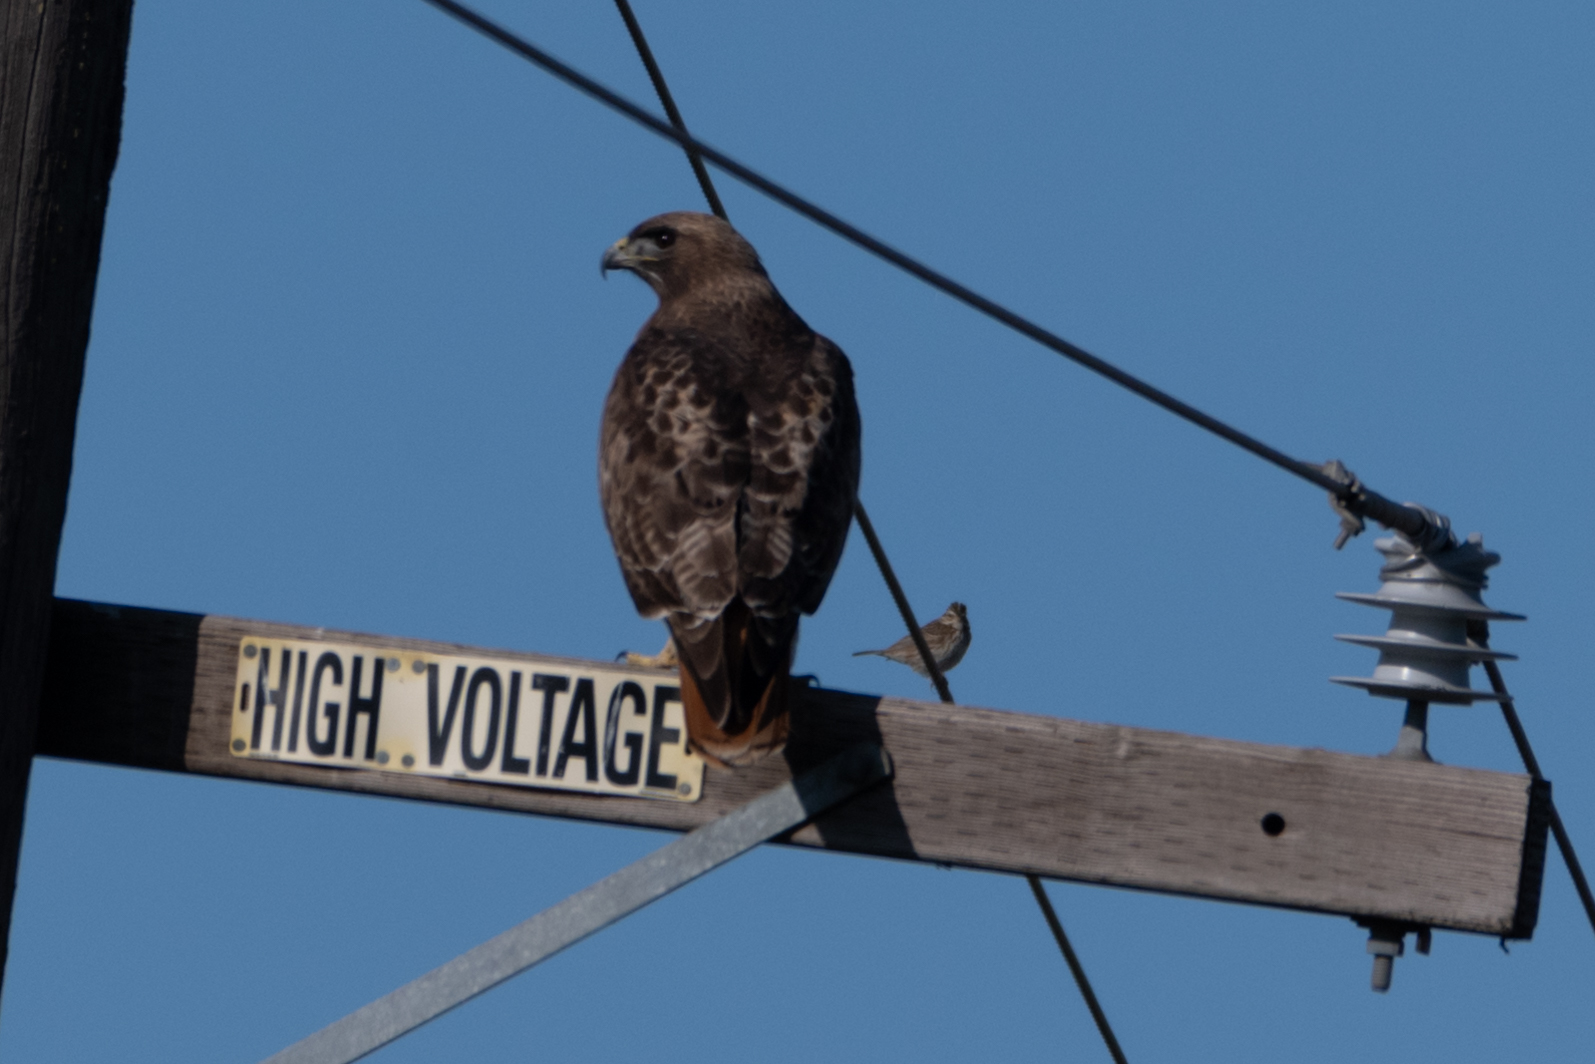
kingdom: Animalia
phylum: Chordata
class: Aves
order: Accipitriformes
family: Accipitridae
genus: Buteo
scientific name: Buteo jamaicensis
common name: Red-tailed hawk
